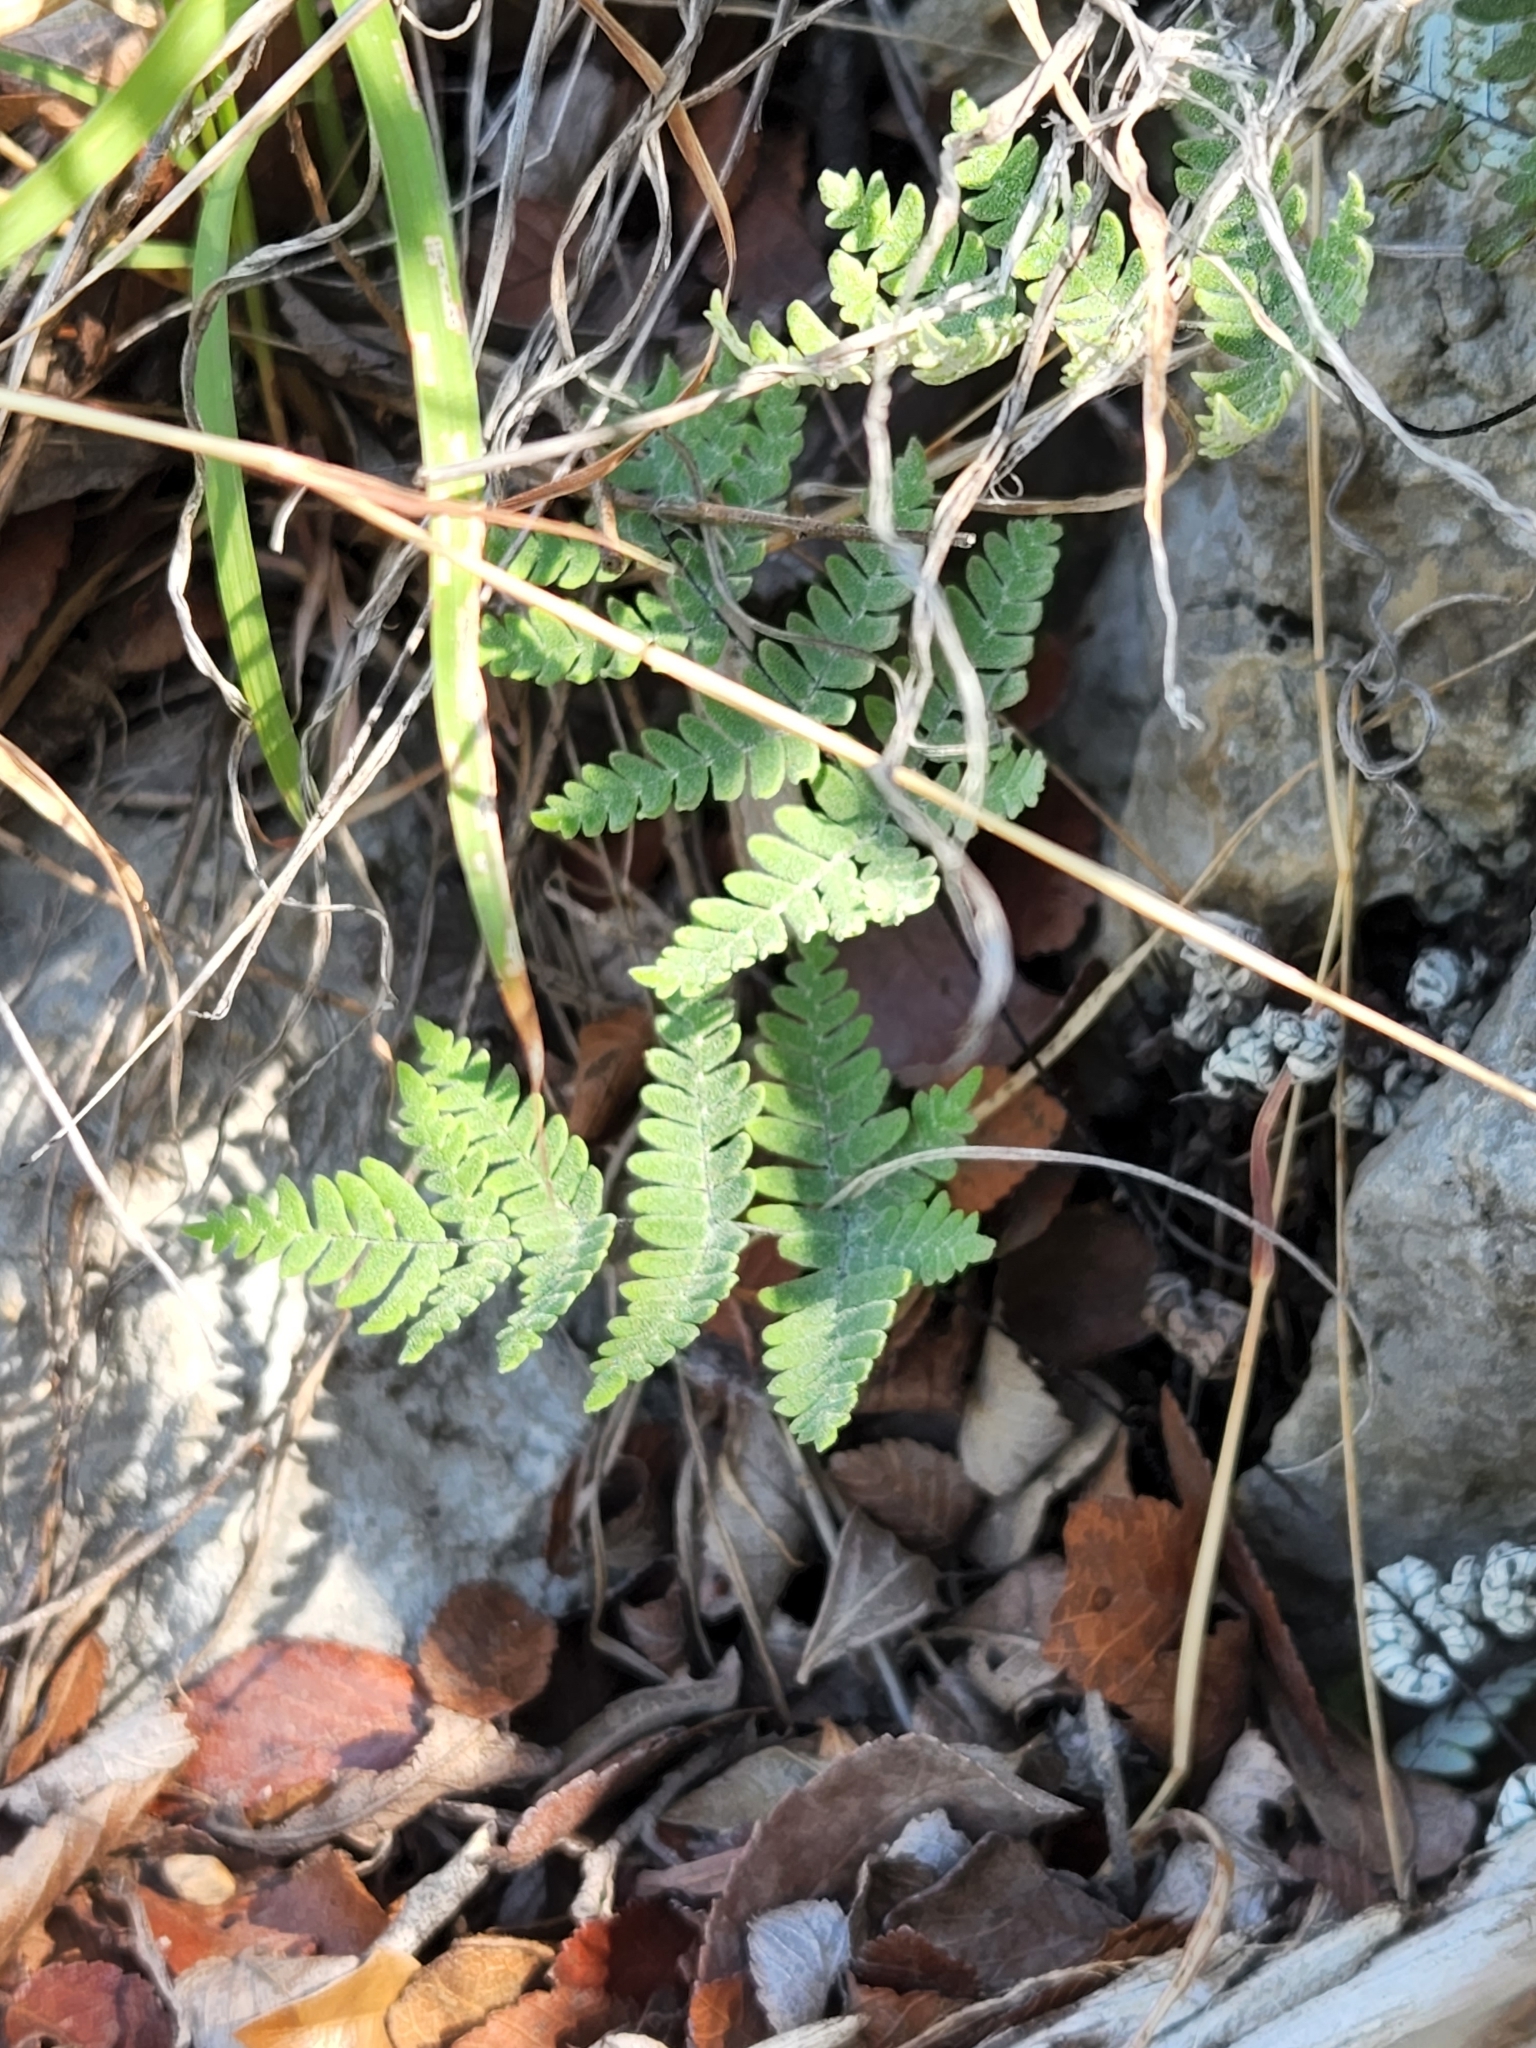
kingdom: Plantae
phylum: Tracheophyta
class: Polypodiopsida
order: Polypodiales
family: Pteridaceae
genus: Myriopteris
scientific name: Myriopteris scabra
